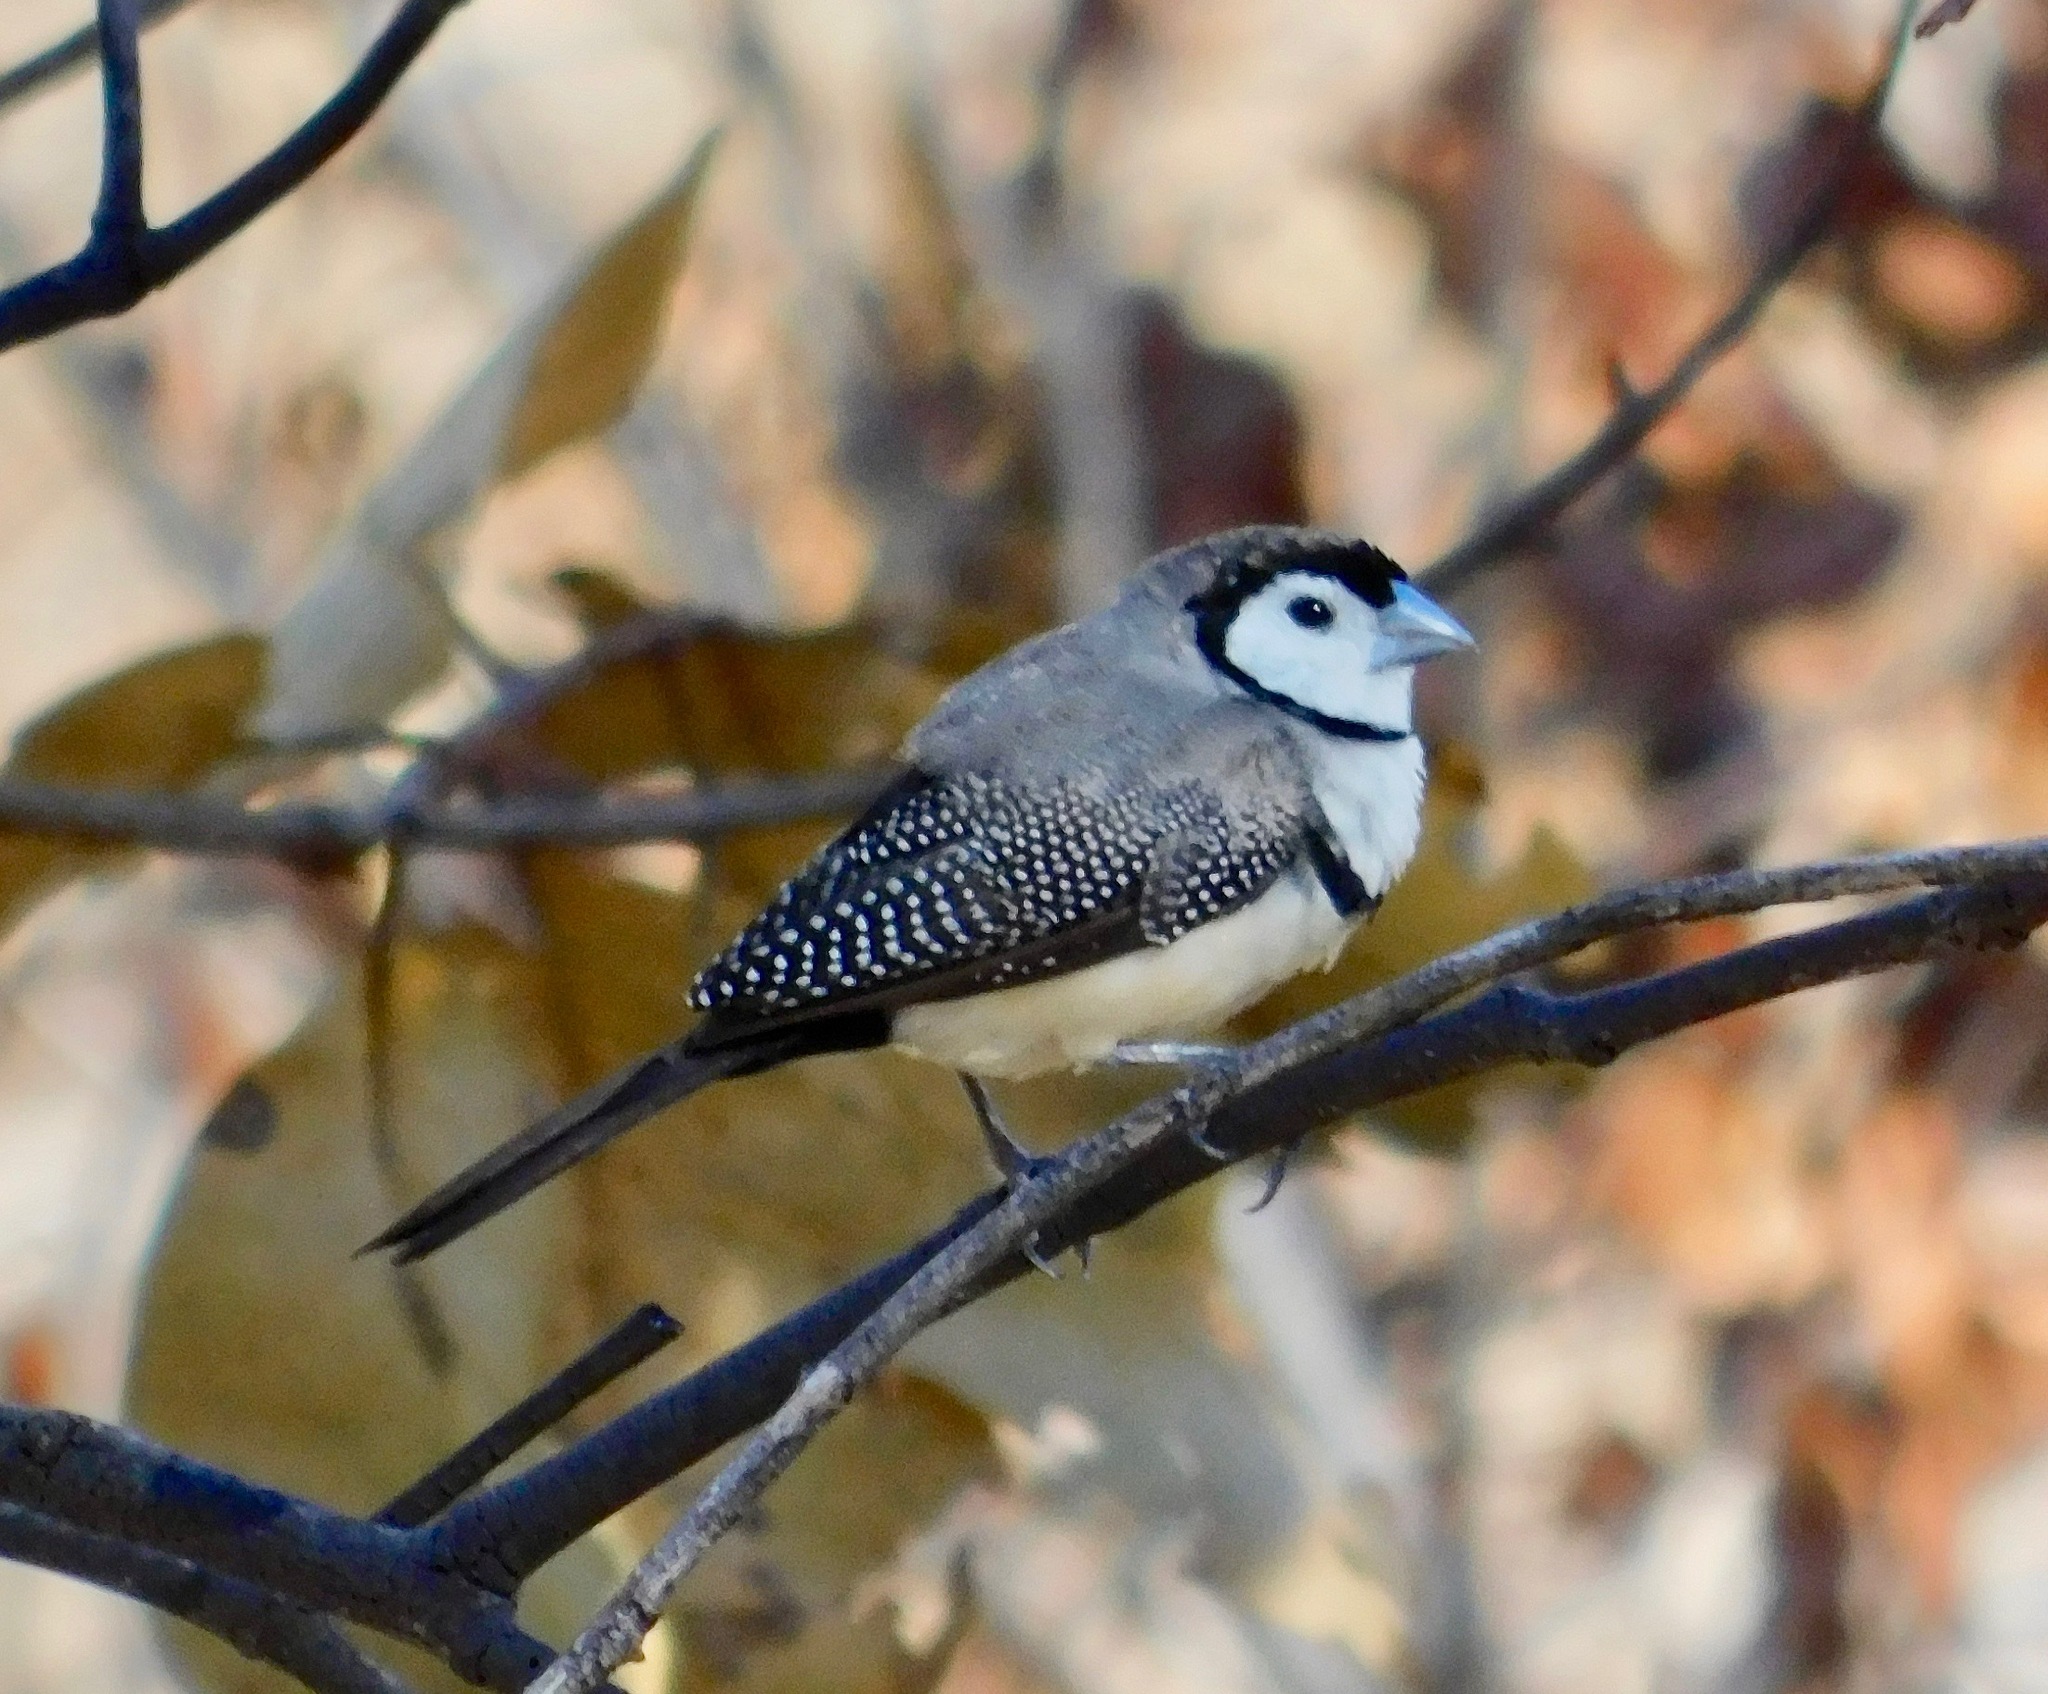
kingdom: Animalia
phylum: Chordata
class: Aves
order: Passeriformes
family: Estrildidae
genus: Taeniopygia
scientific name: Taeniopygia bichenovii
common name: Double-barred finch
